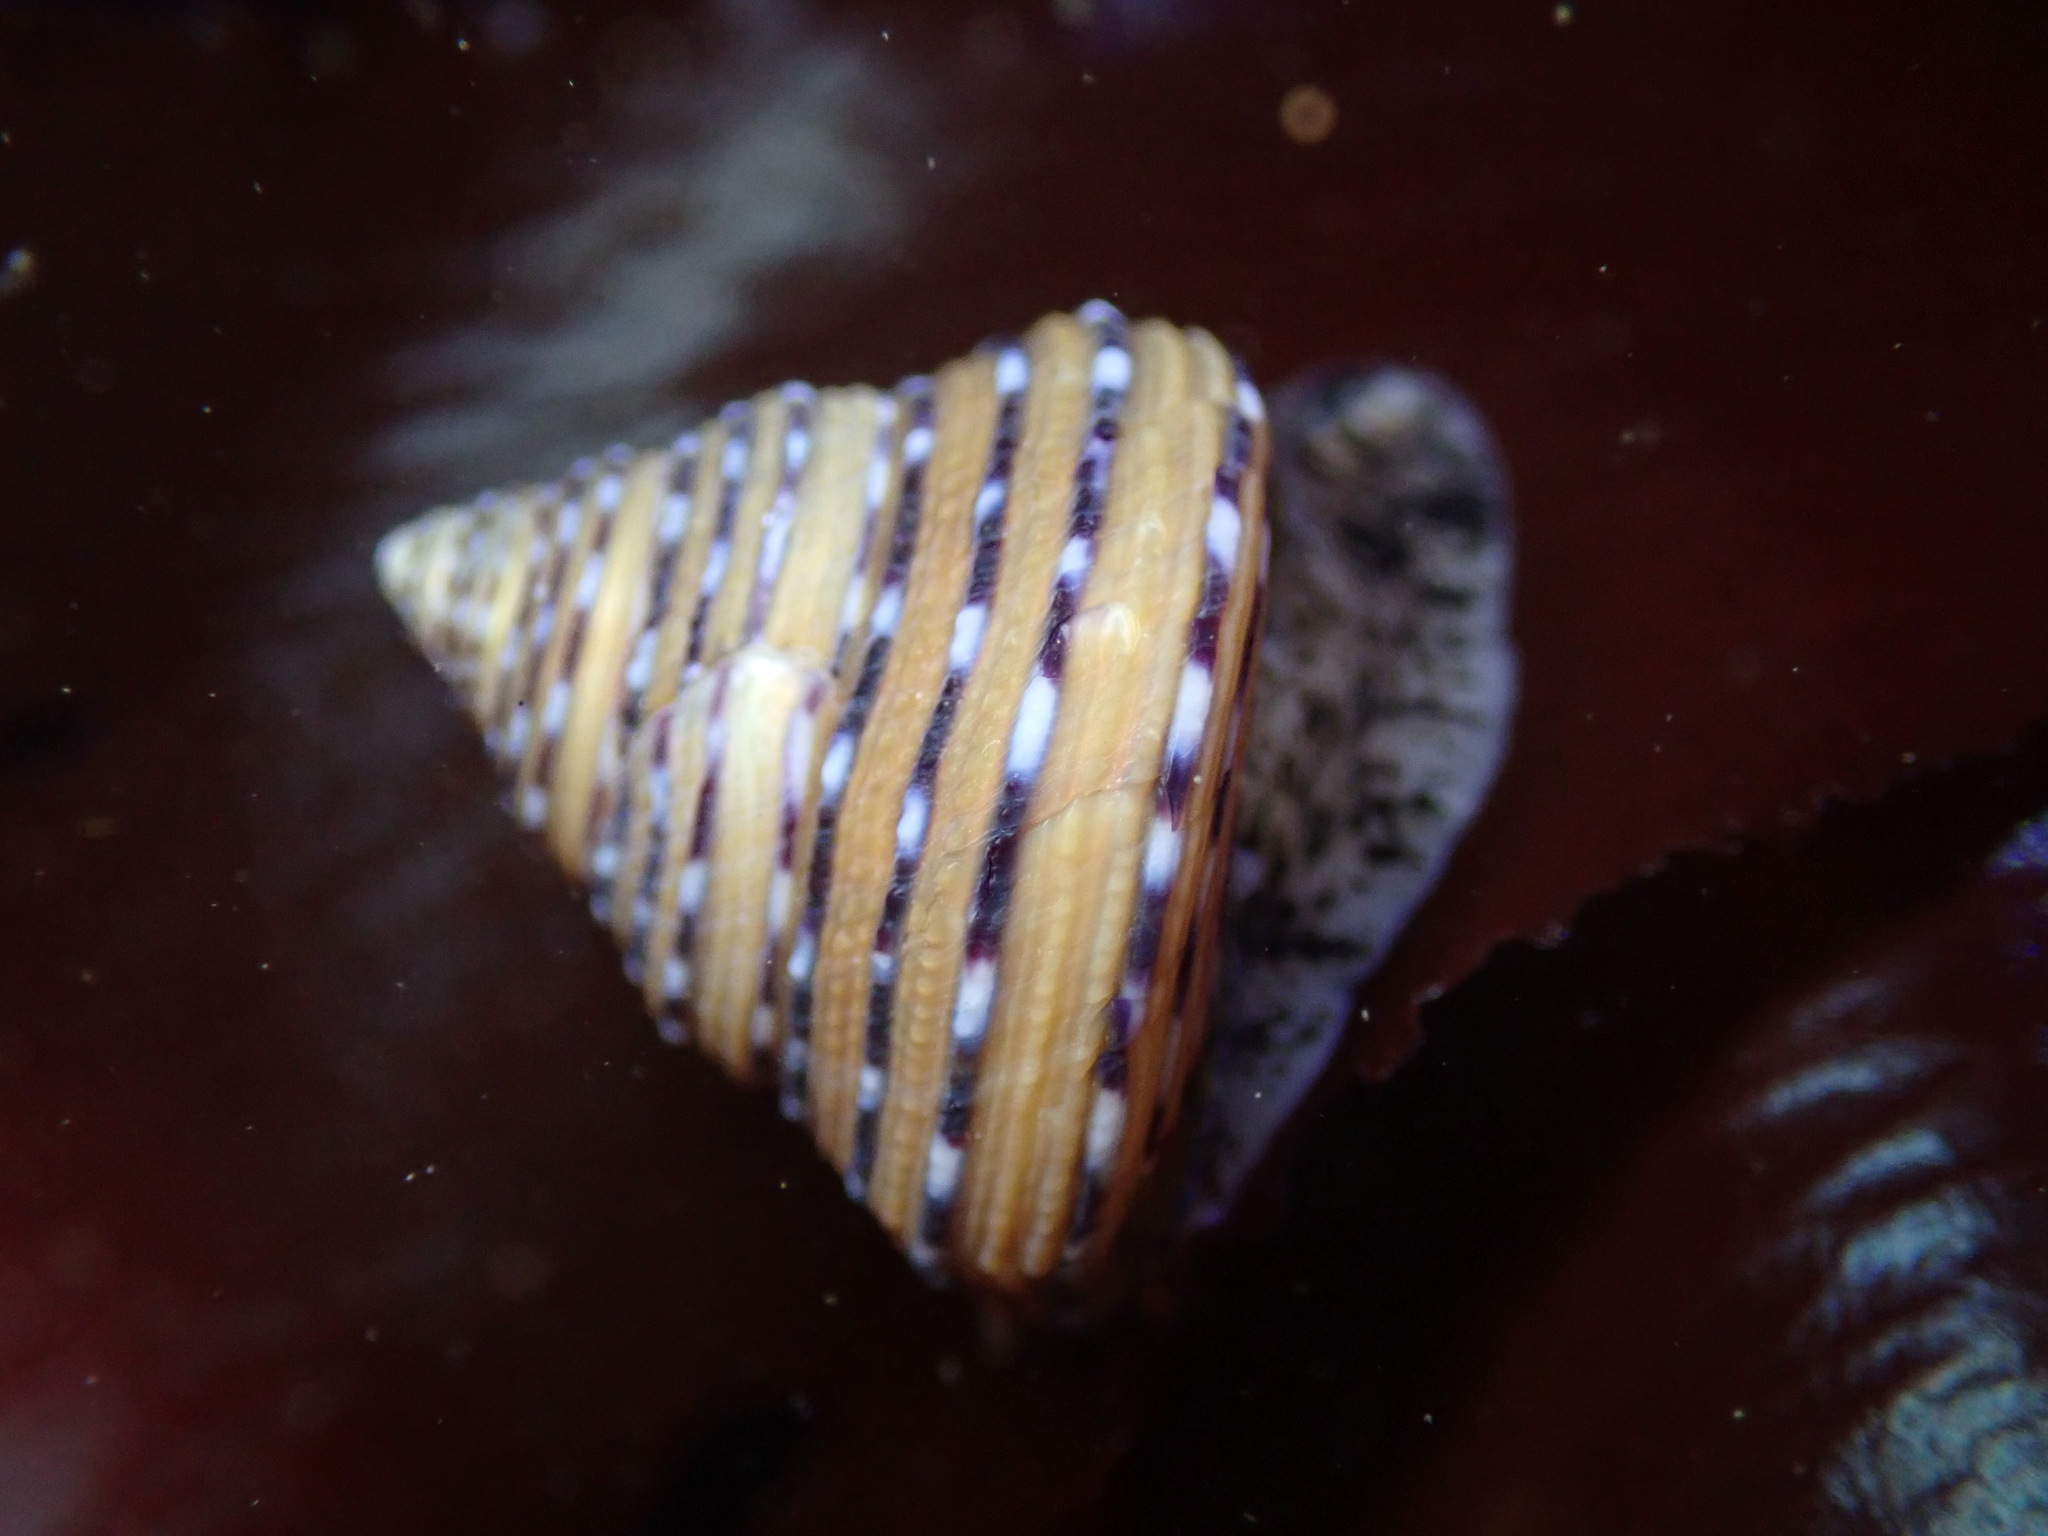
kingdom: Animalia
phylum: Mollusca
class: Gastropoda
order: Trochida
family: Calliostomatidae
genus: Calliostoma
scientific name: Calliostoma tricolor
